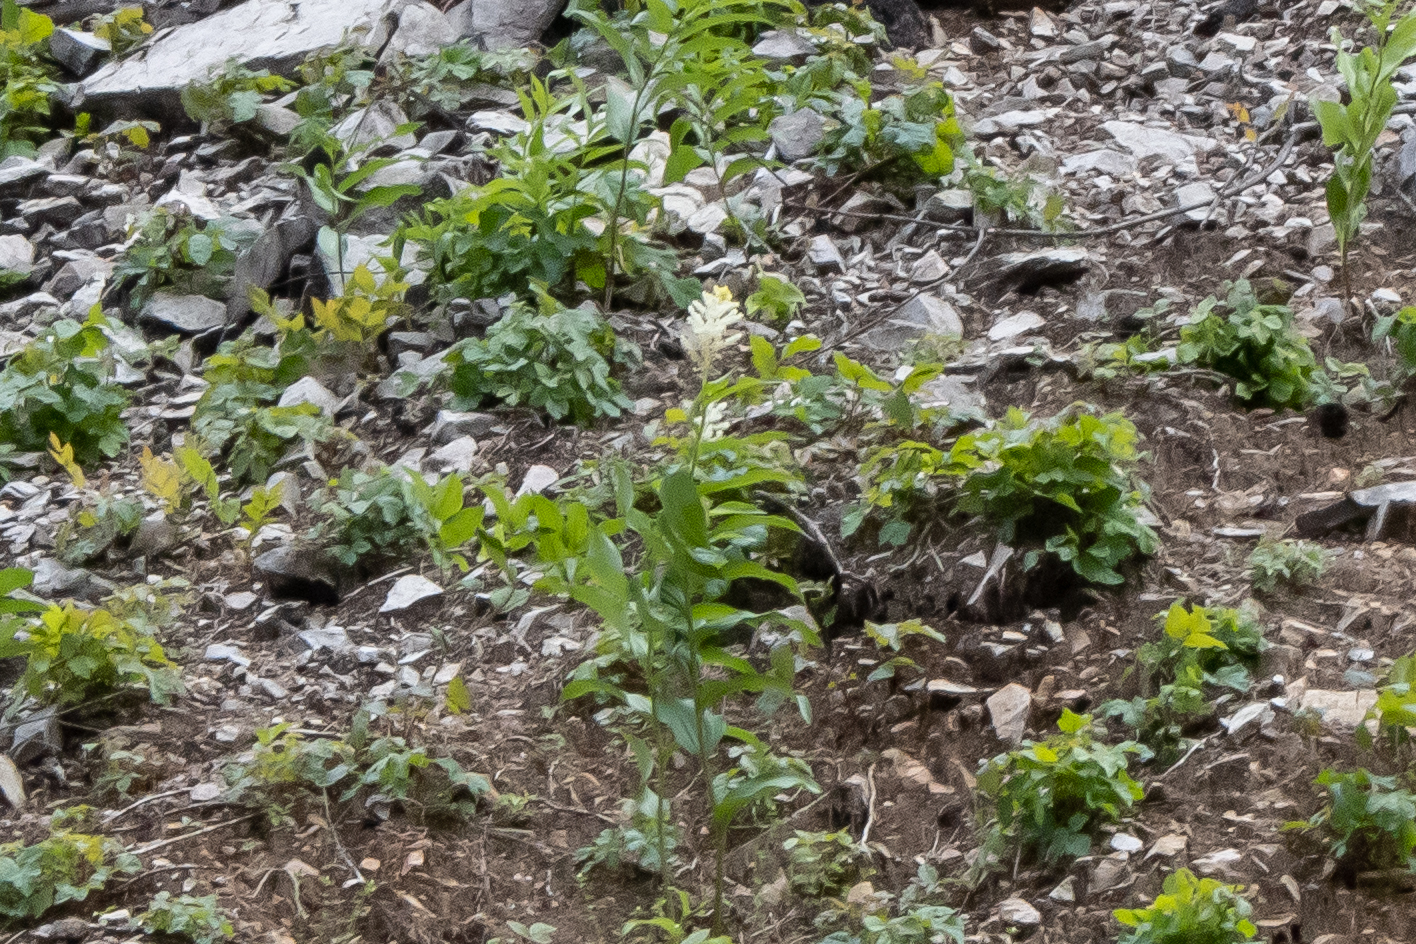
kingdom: Plantae
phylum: Tracheophyta
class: Liliopsida
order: Asparagales
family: Asparagaceae
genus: Maianthemum
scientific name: Maianthemum racemosum
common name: False spikenard
